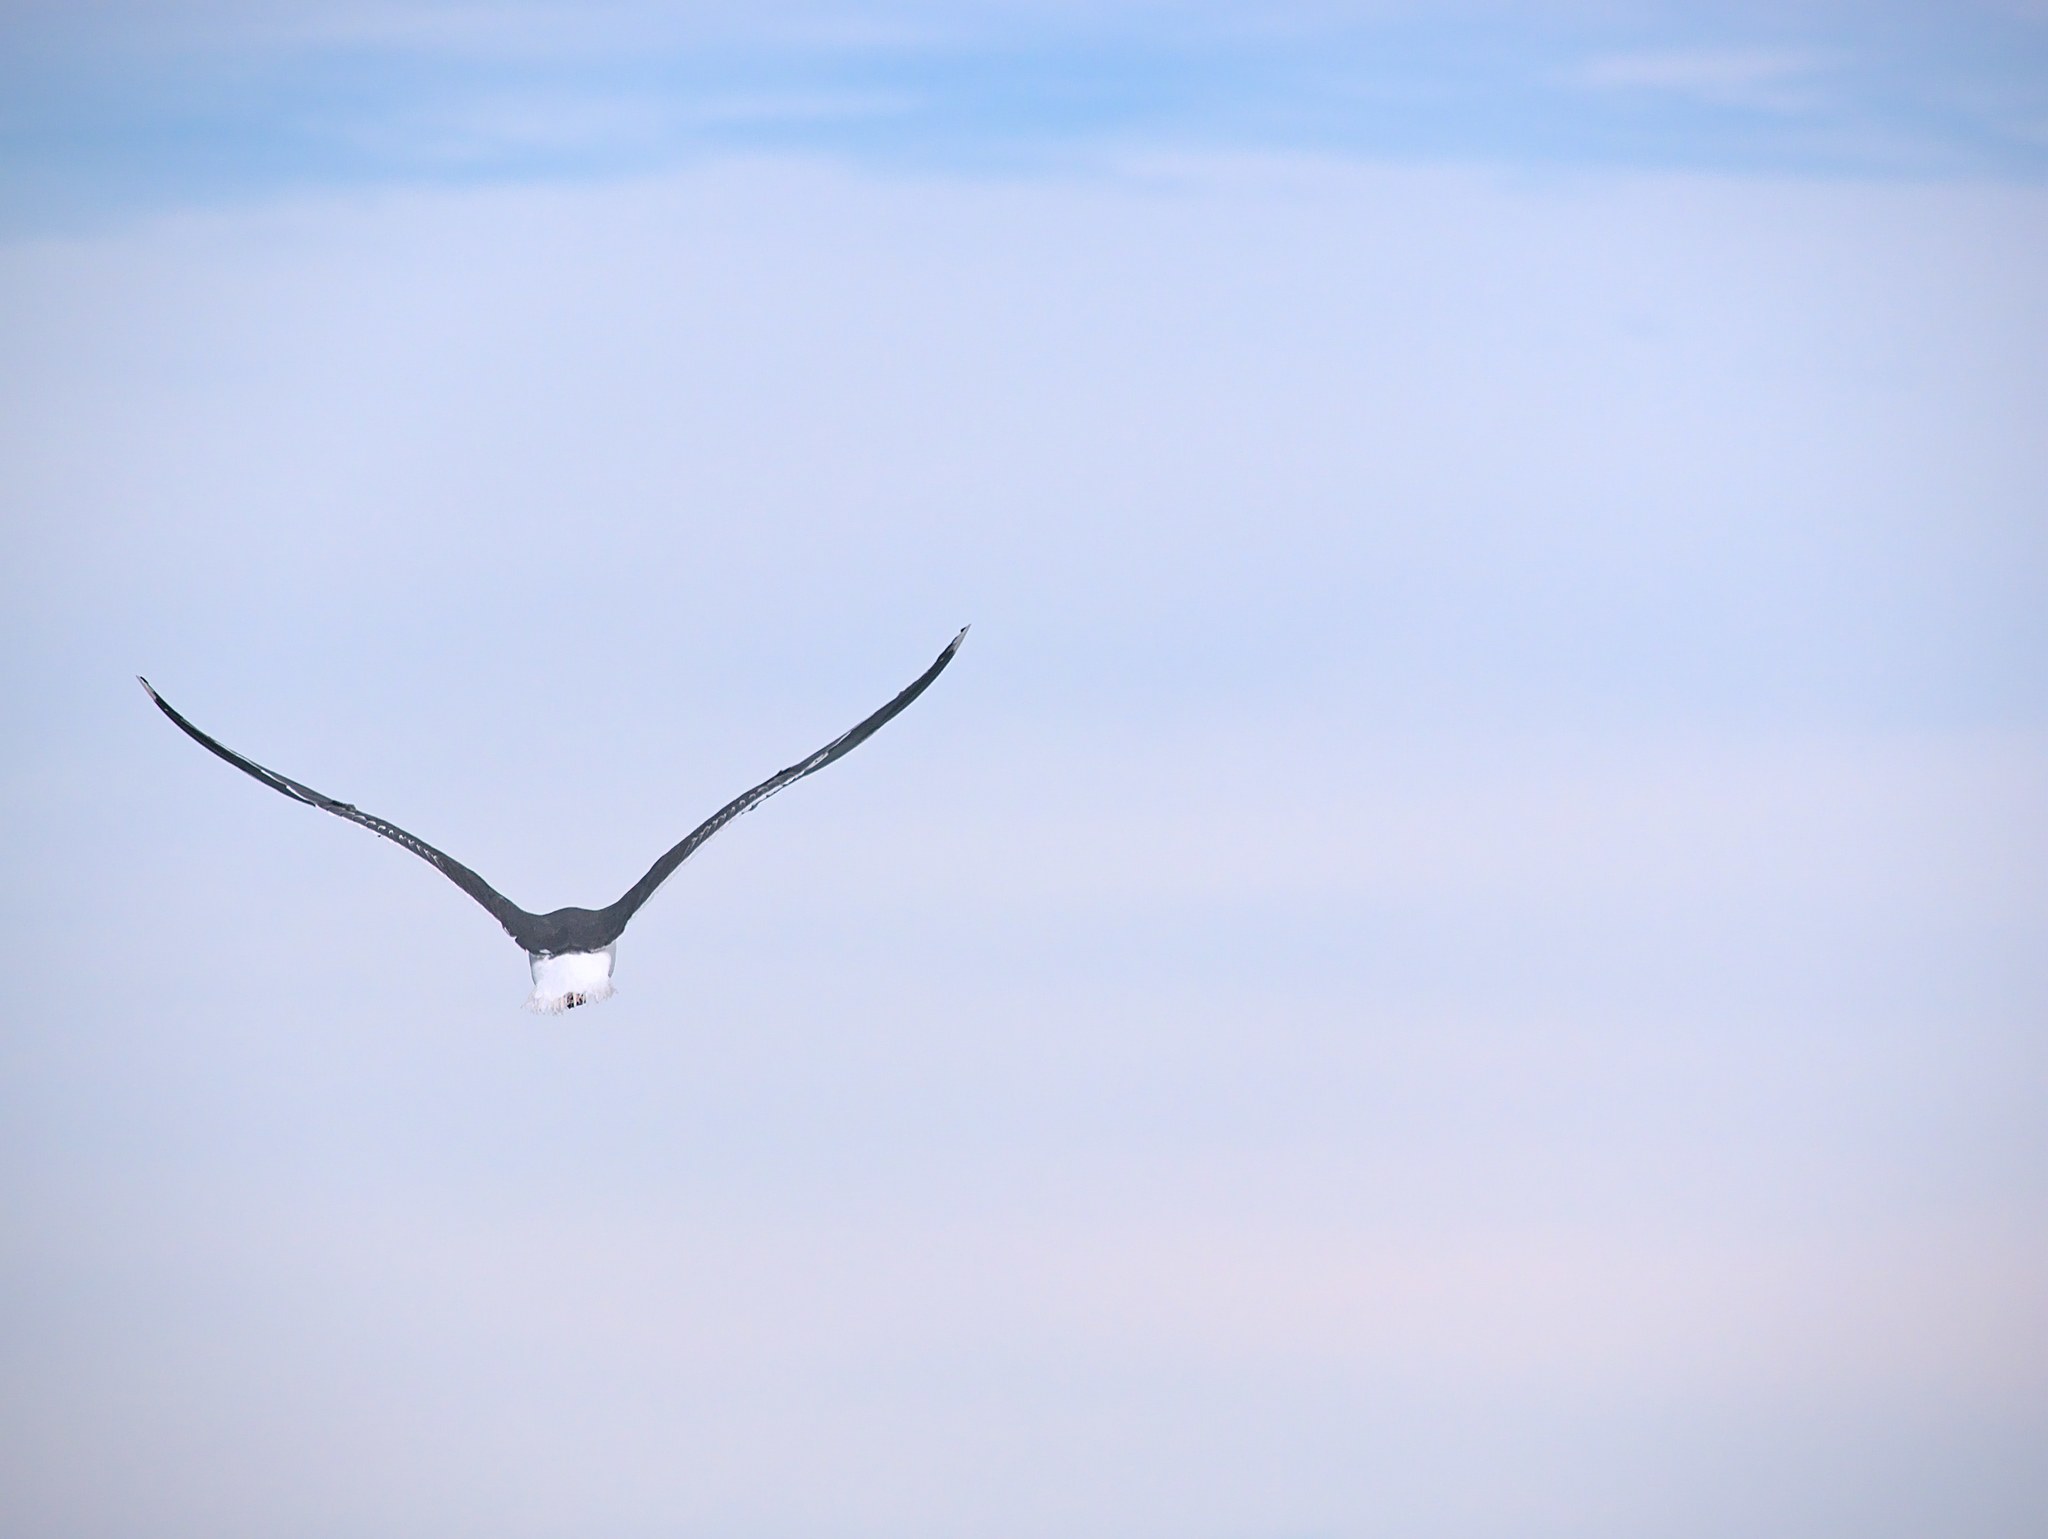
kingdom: Animalia
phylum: Chordata
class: Aves
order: Charadriiformes
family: Laridae
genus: Larus
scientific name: Larus marinus
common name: Great black-backed gull
